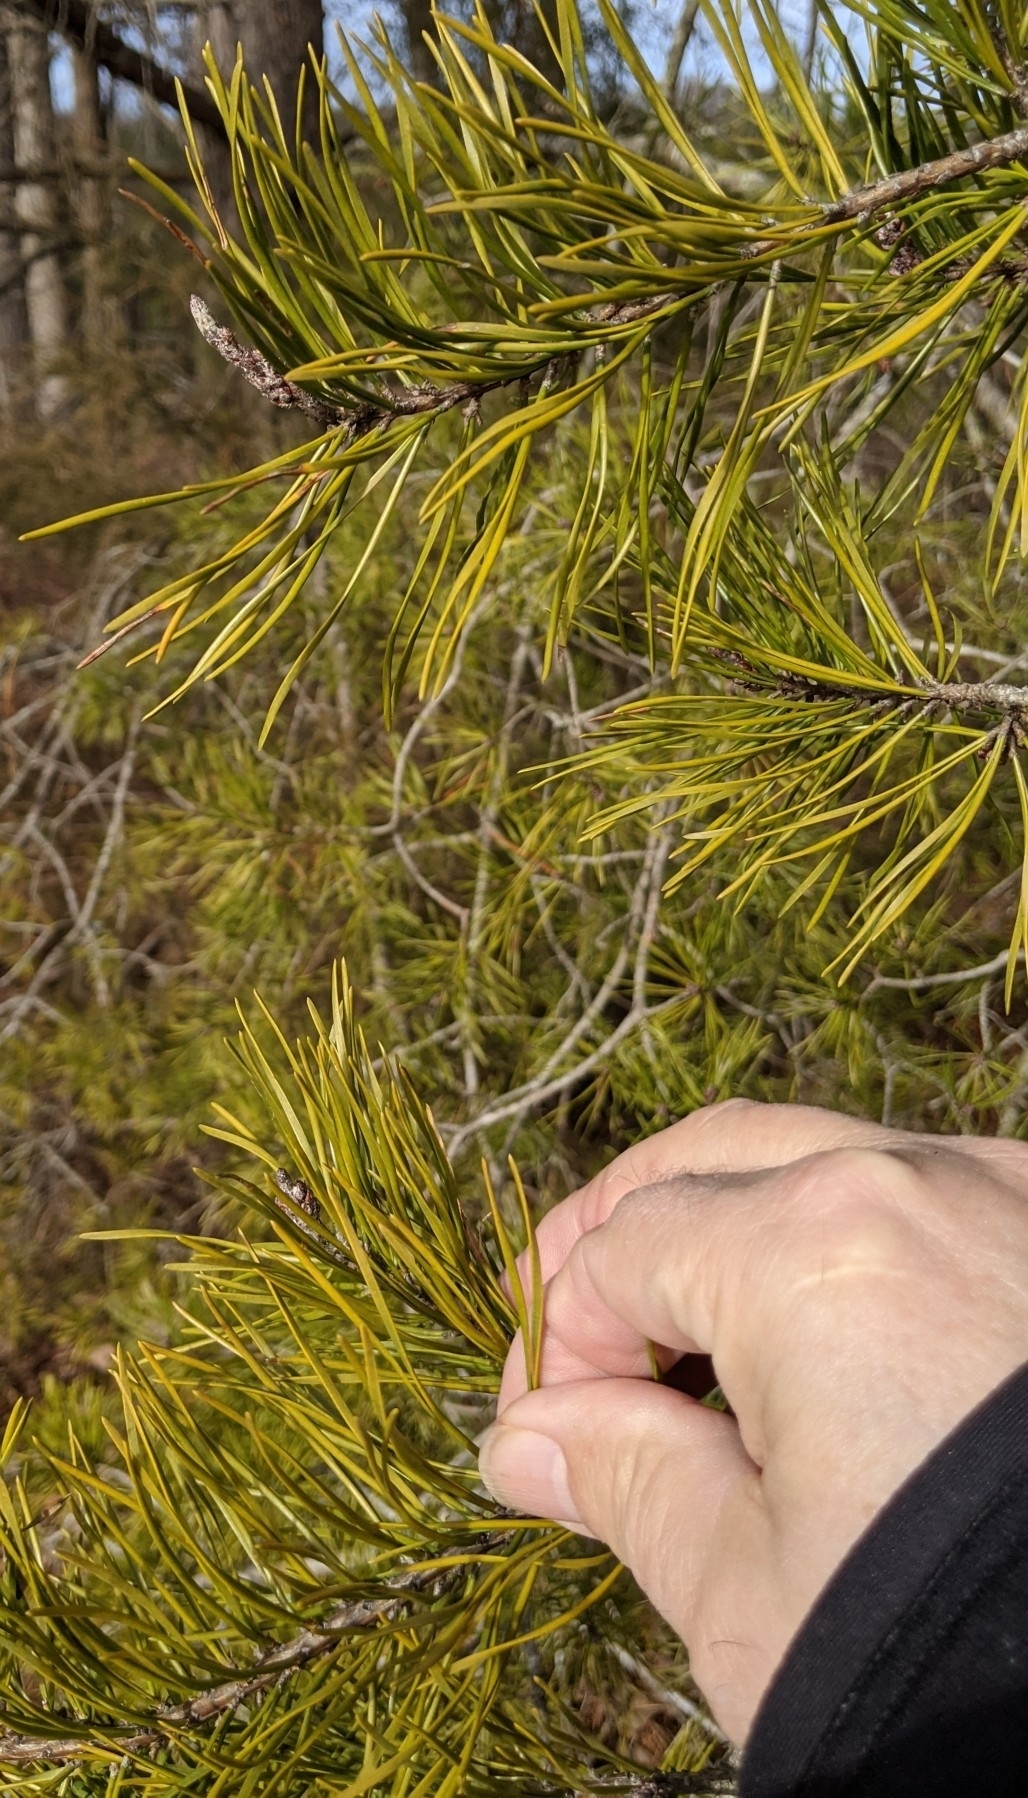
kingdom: Plantae
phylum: Tracheophyta
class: Pinopsida
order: Pinales
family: Pinaceae
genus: Pinus
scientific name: Pinus virginiana
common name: Scrub pine
